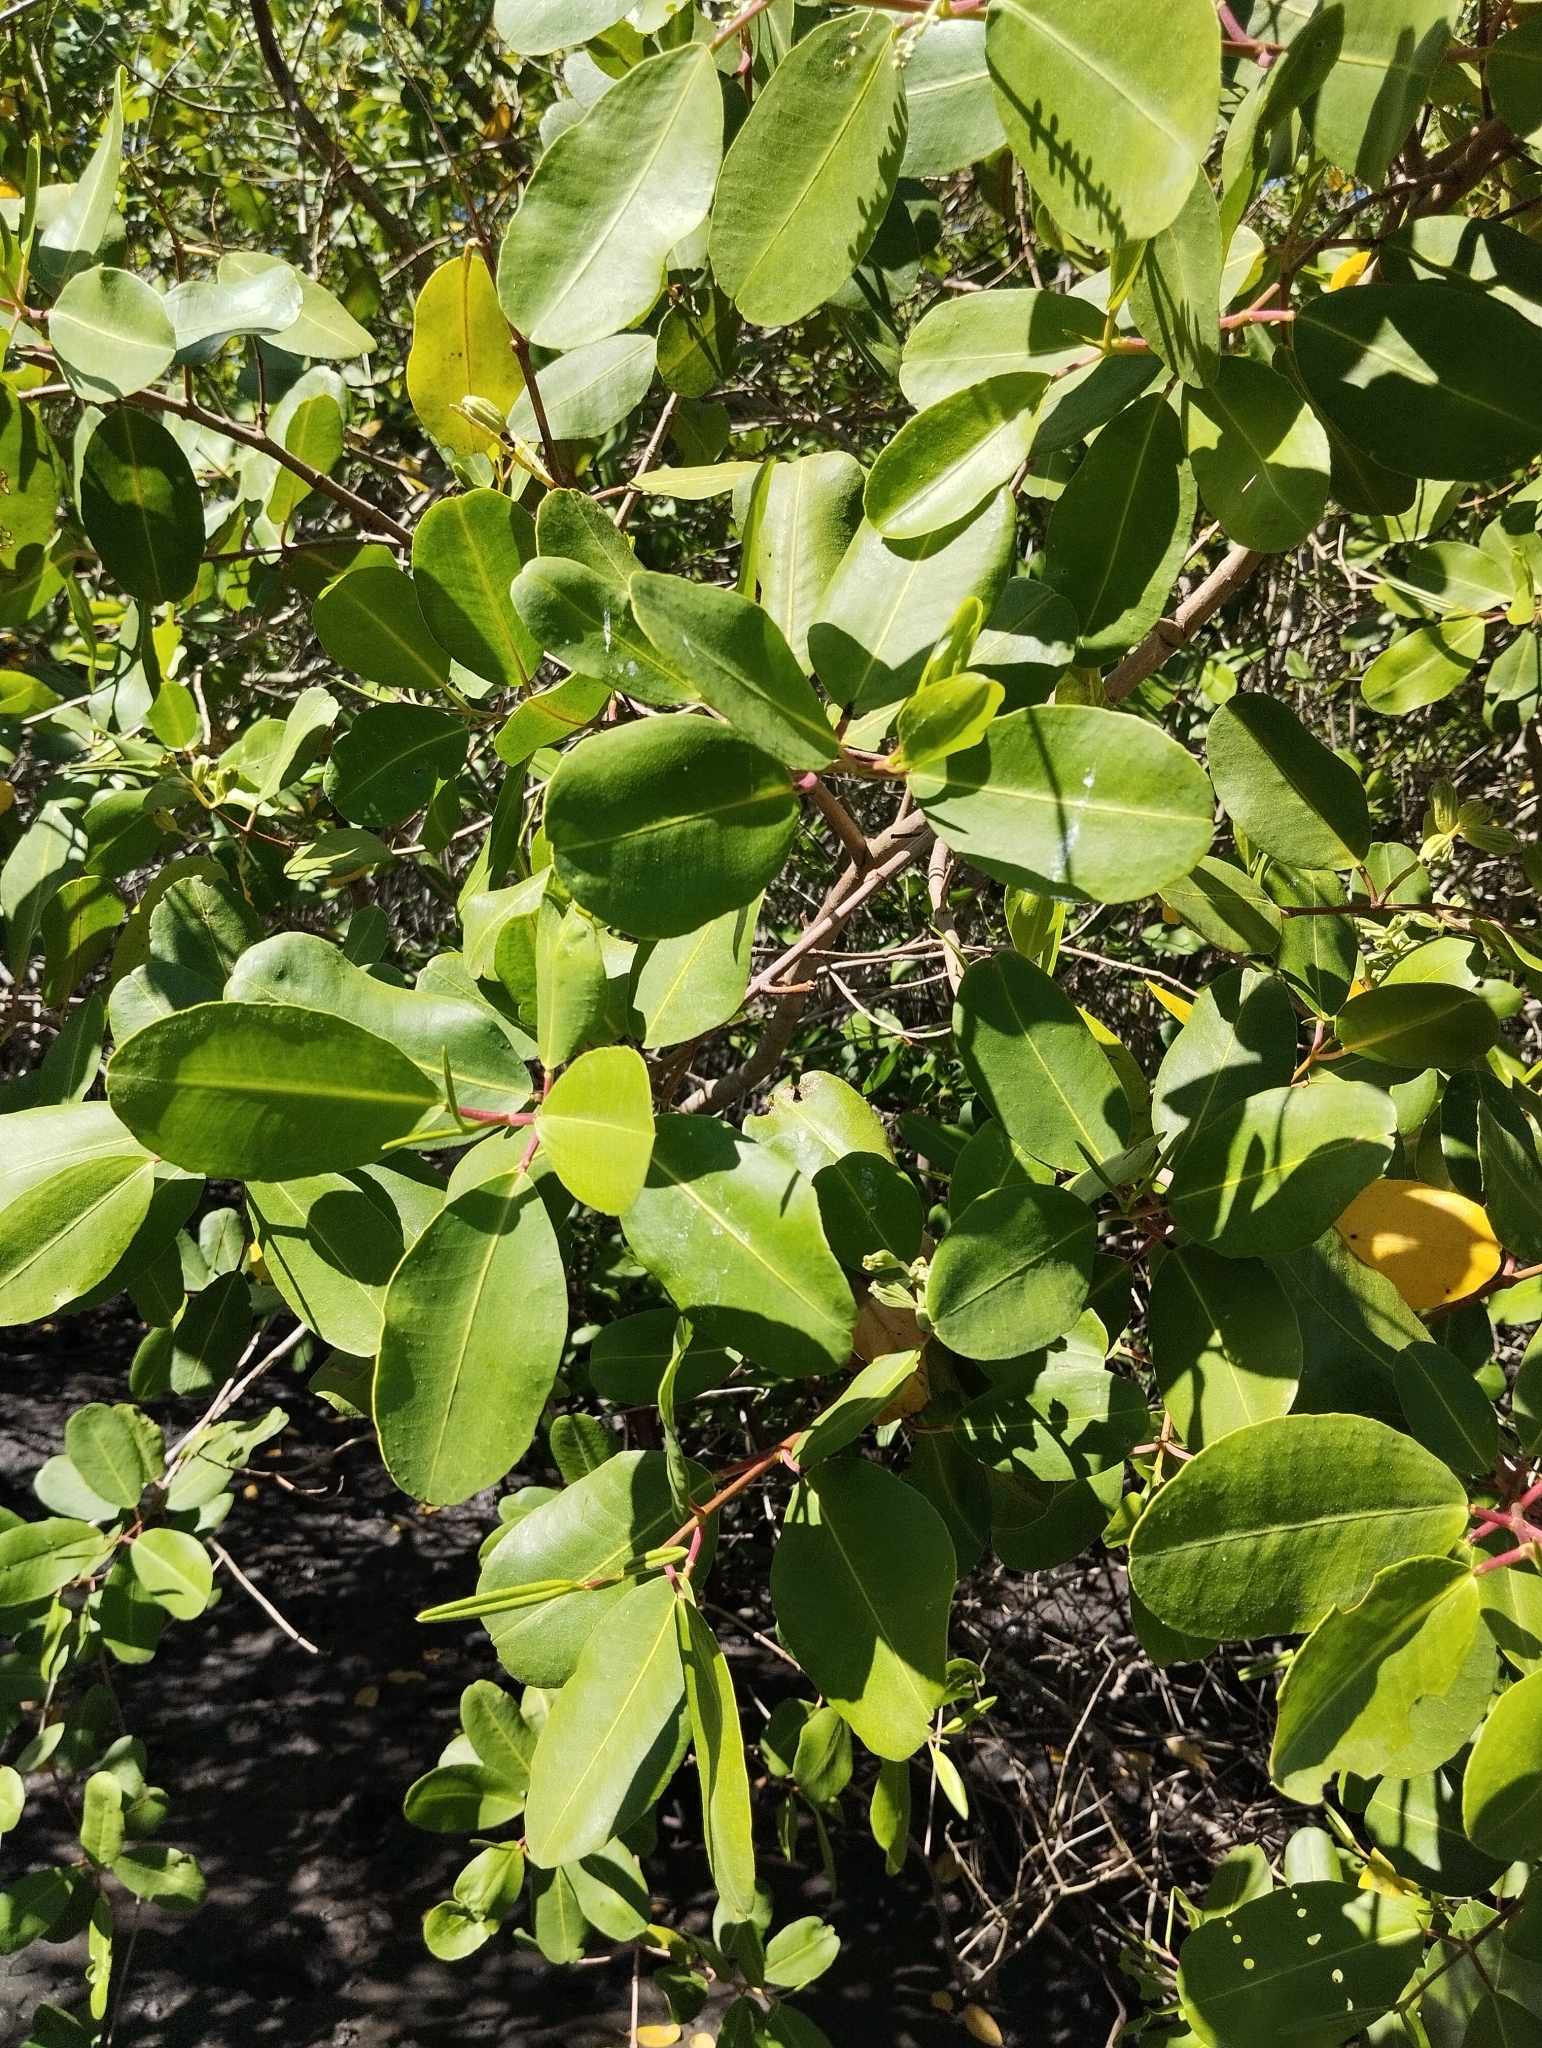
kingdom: Plantae
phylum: Tracheophyta
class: Magnoliopsida
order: Myrtales
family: Combretaceae
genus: Laguncularia
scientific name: Laguncularia racemosa
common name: White mangrove
